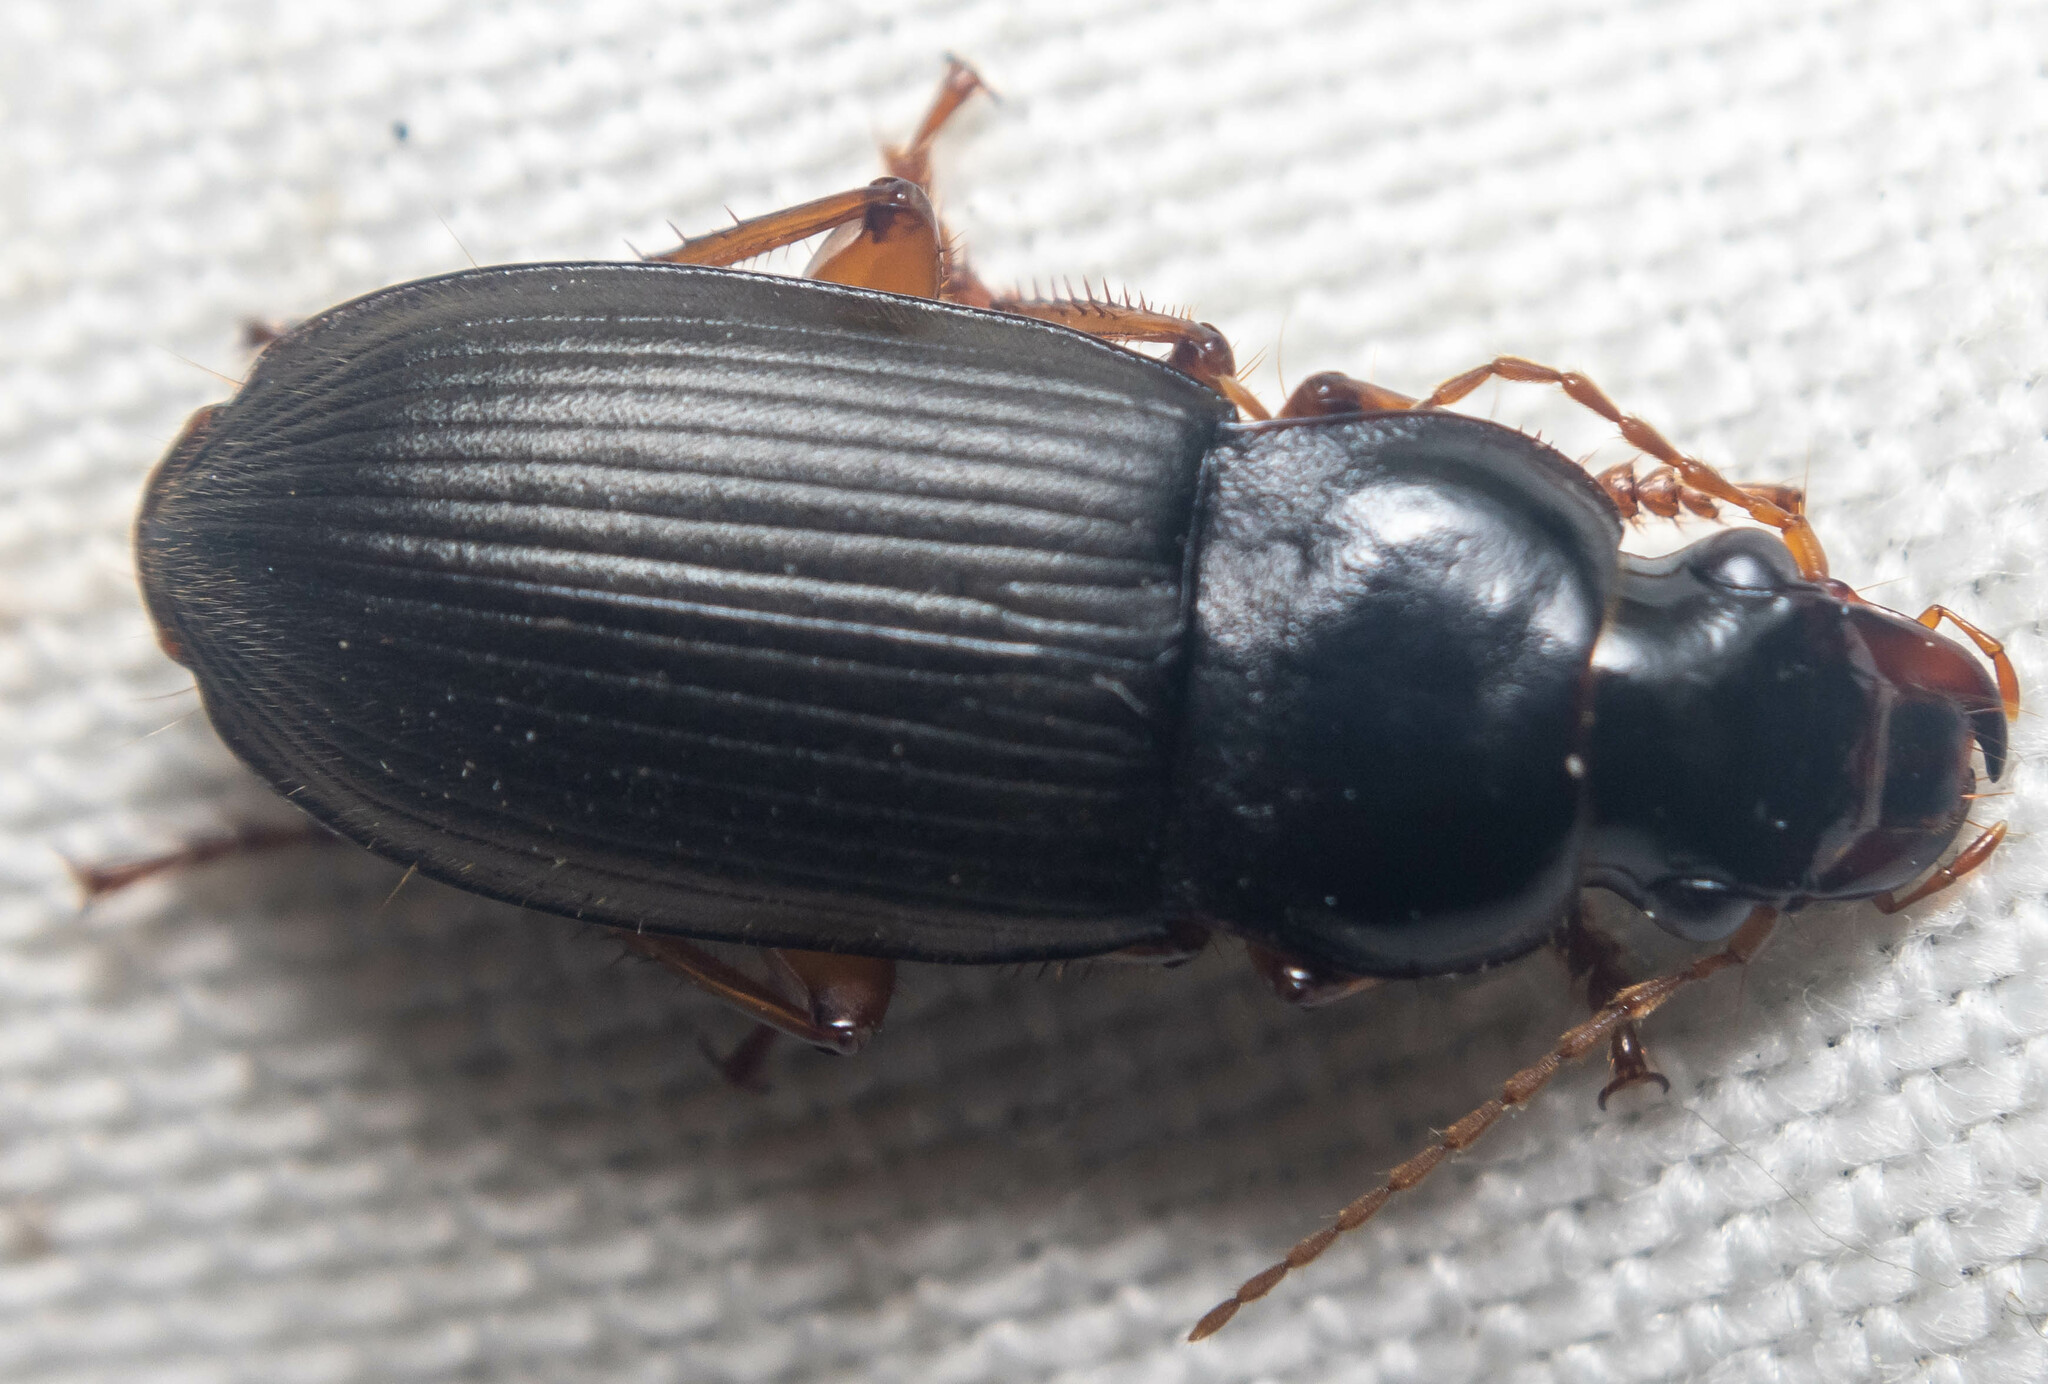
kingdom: Animalia
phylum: Arthropoda
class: Insecta
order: Coleoptera
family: Carabidae
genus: Harpalus
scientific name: Harpalus rufipes
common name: Strawberry harp ground beetle
